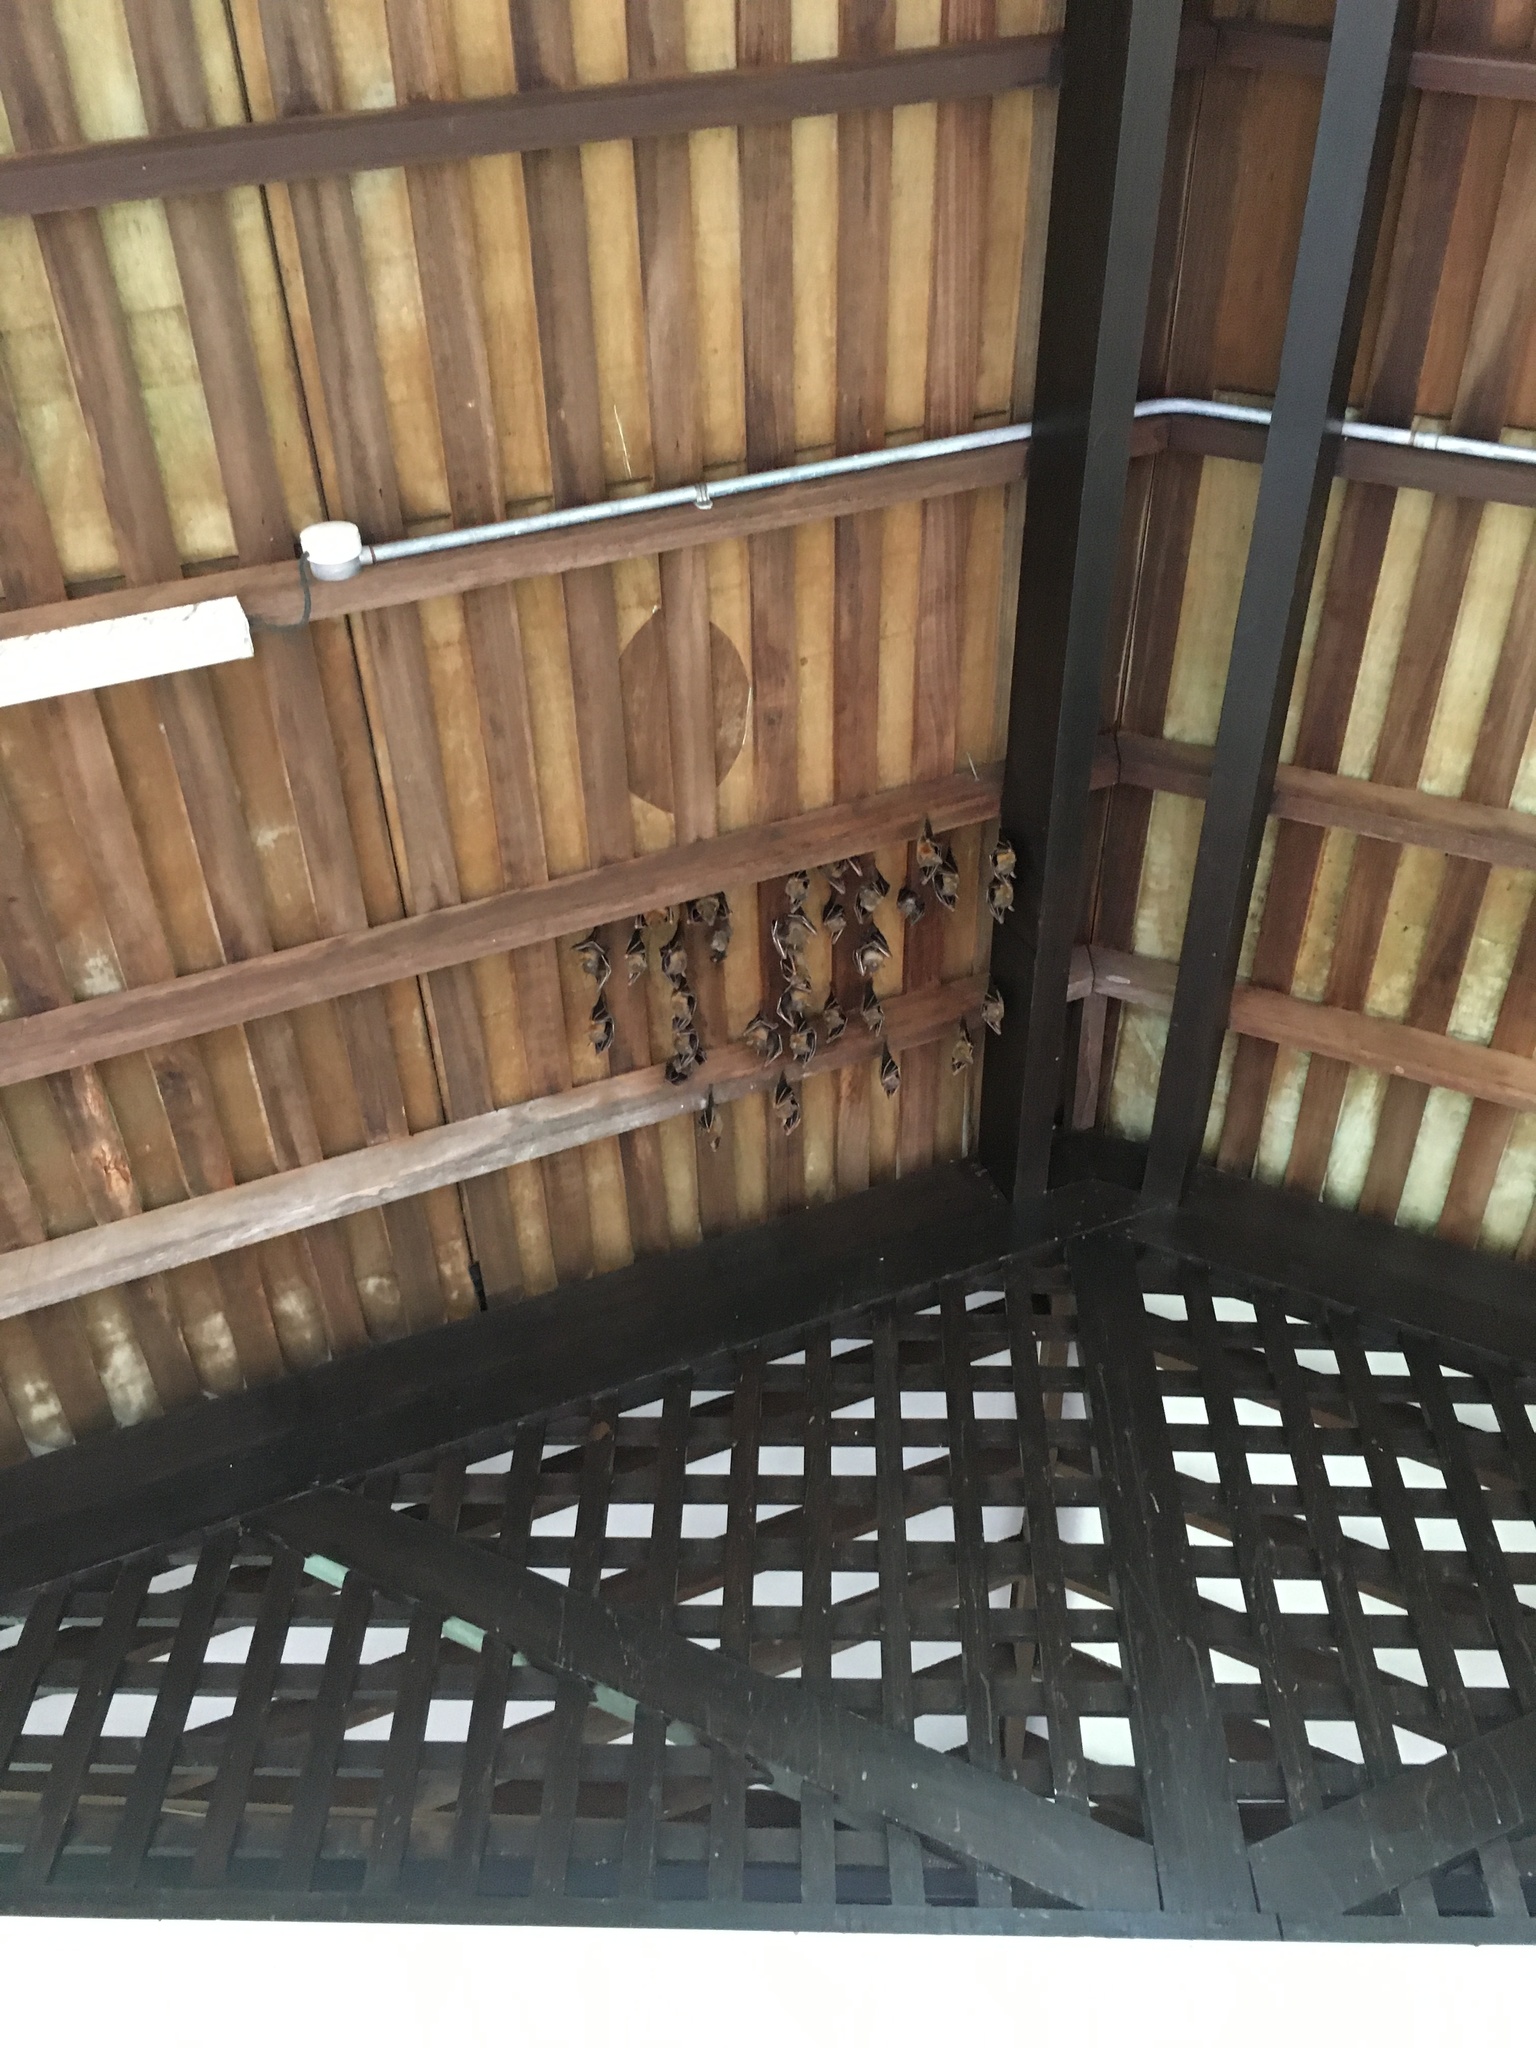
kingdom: Animalia
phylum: Chordata
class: Mammalia
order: Chiroptera
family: Pteropodidae
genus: Cynopterus
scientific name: Cynopterus brachyotis
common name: Lesser short-nosed fruit bat
